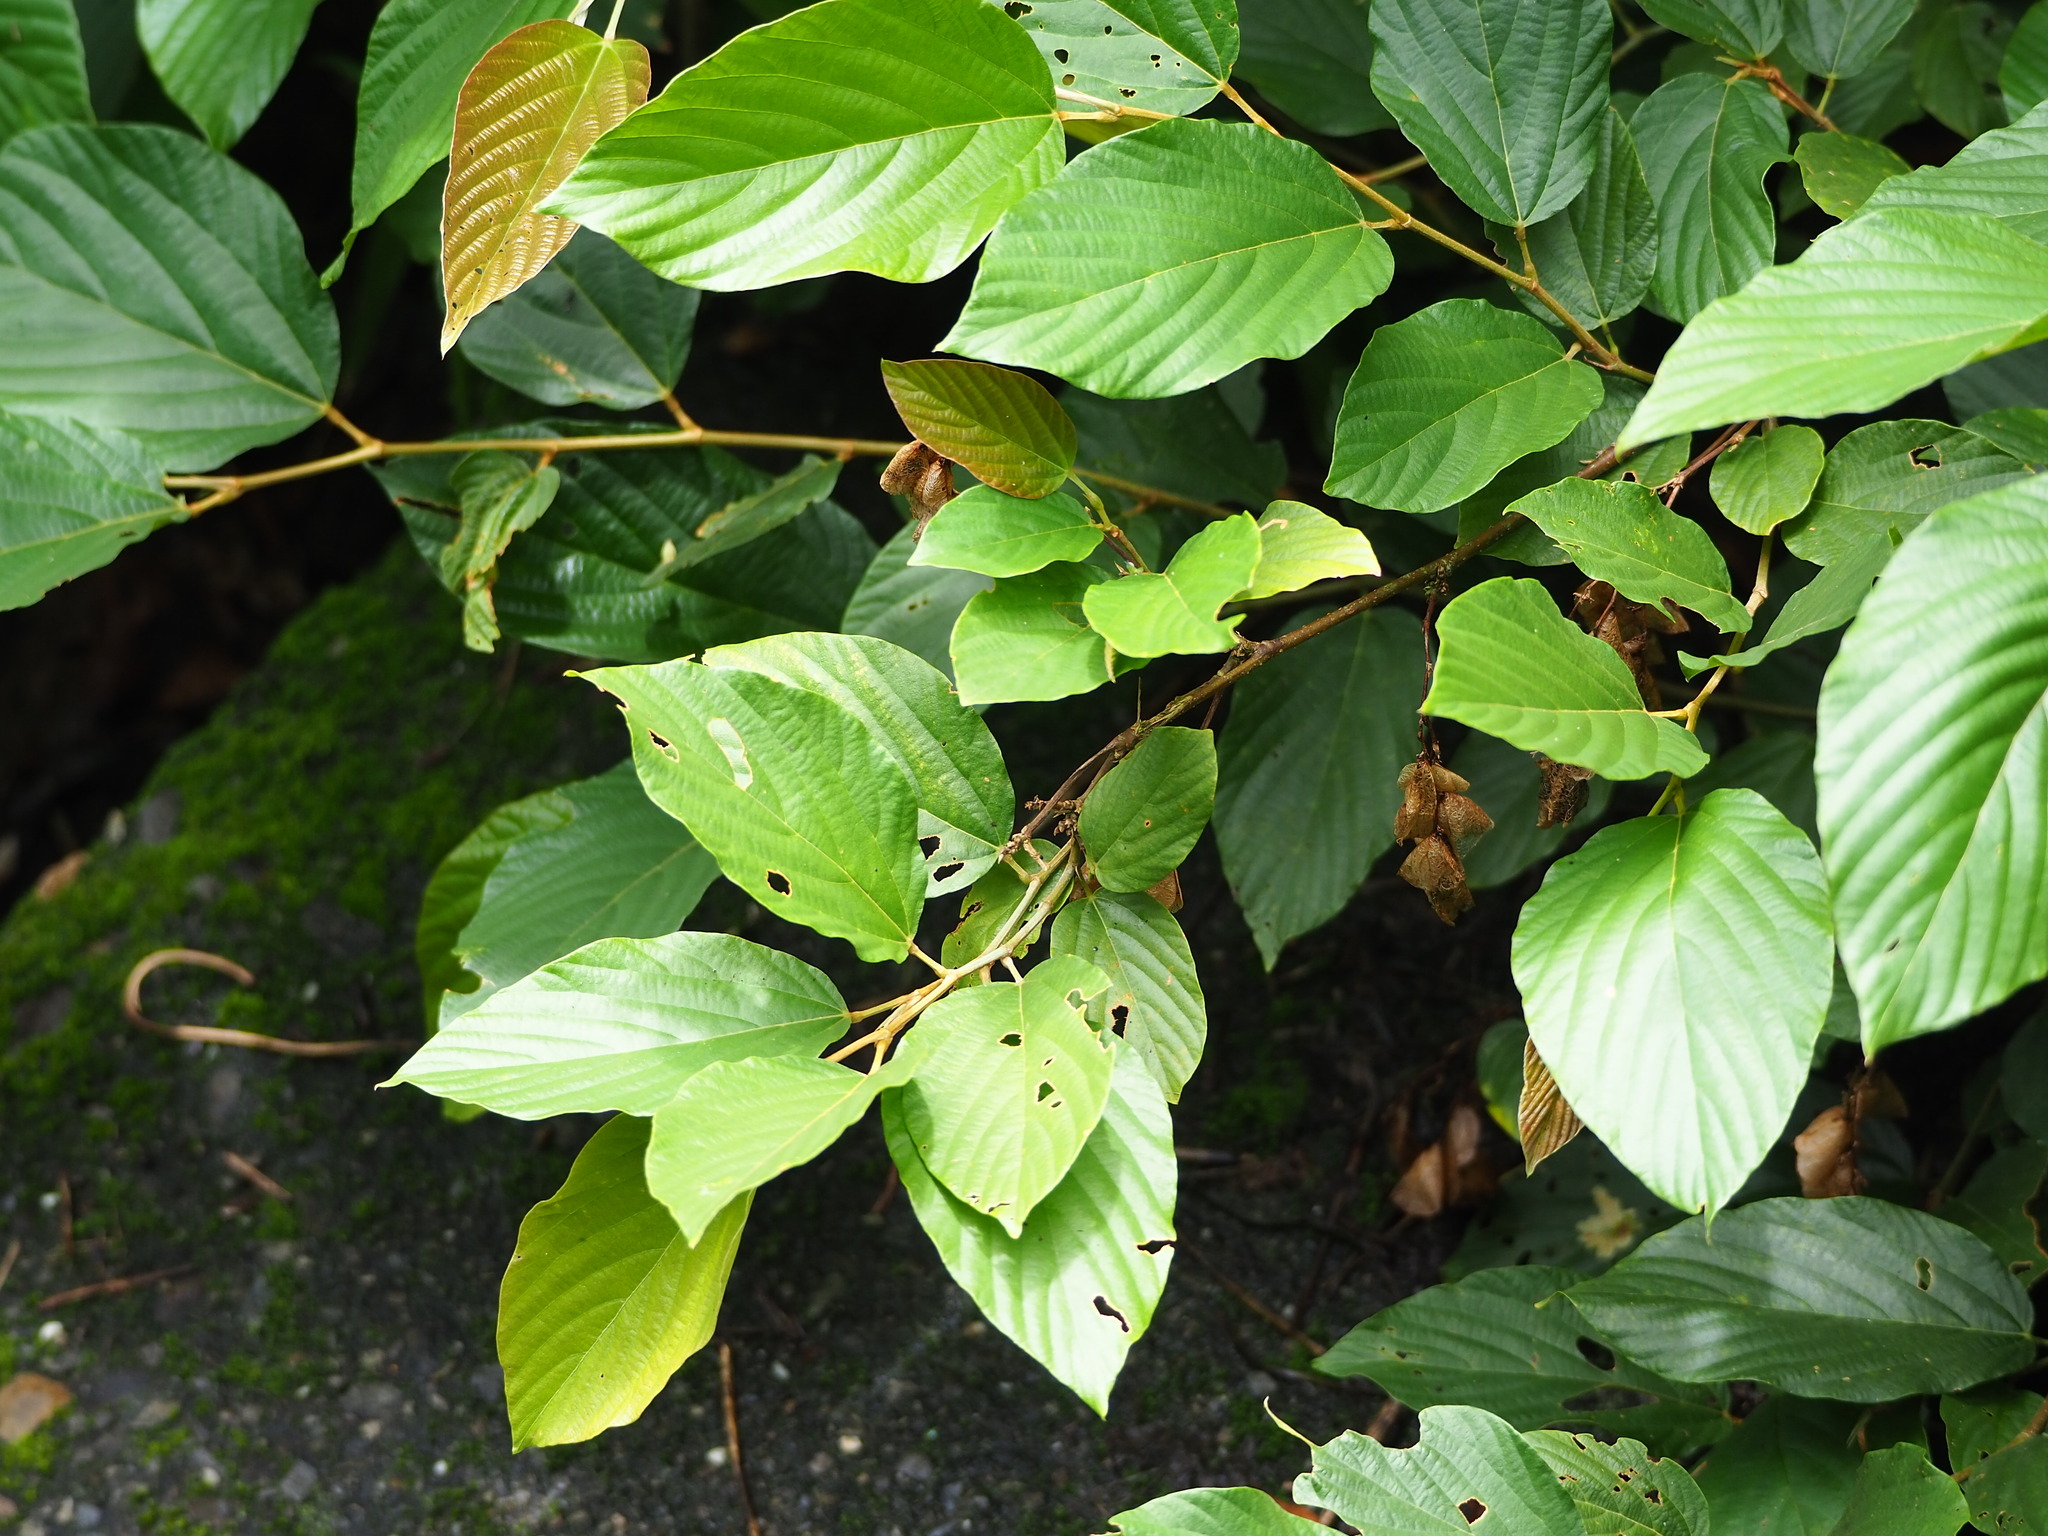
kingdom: Plantae
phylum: Tracheophyta
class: Magnoliopsida
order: Fabales
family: Fabaceae
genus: Flemingia
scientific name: Flemingia strobilifera
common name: Wild hops
